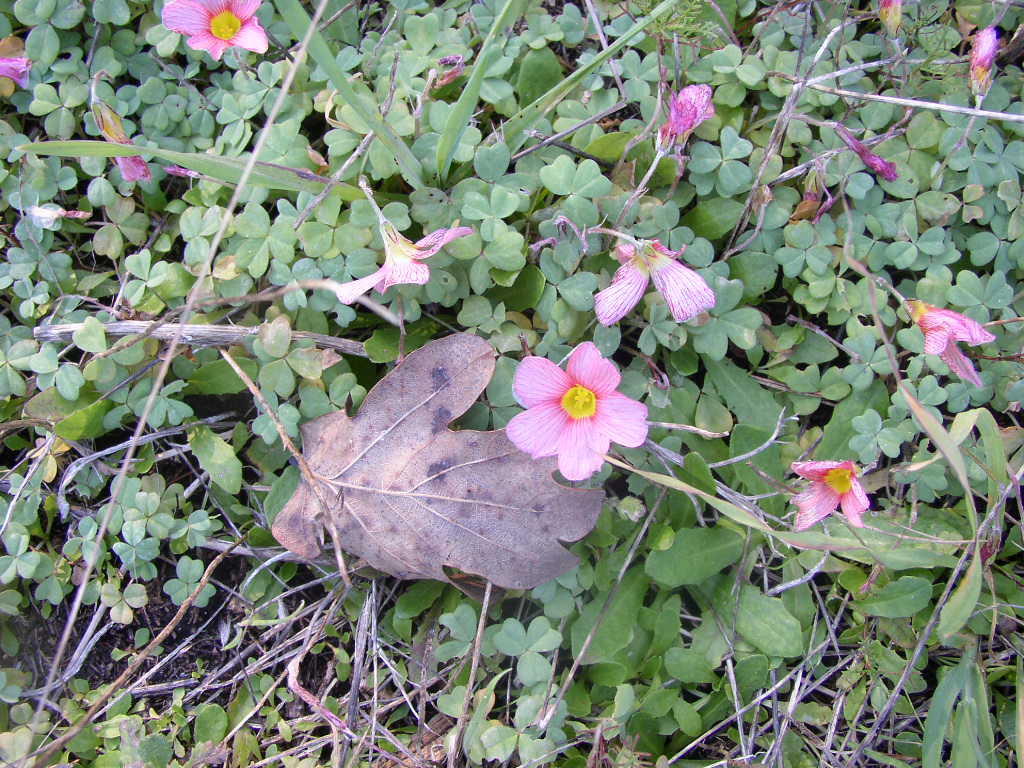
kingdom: Plantae
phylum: Tracheophyta
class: Magnoliopsida
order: Oxalidales
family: Oxalidaceae
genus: Oxalis
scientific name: Oxalis obtusa
